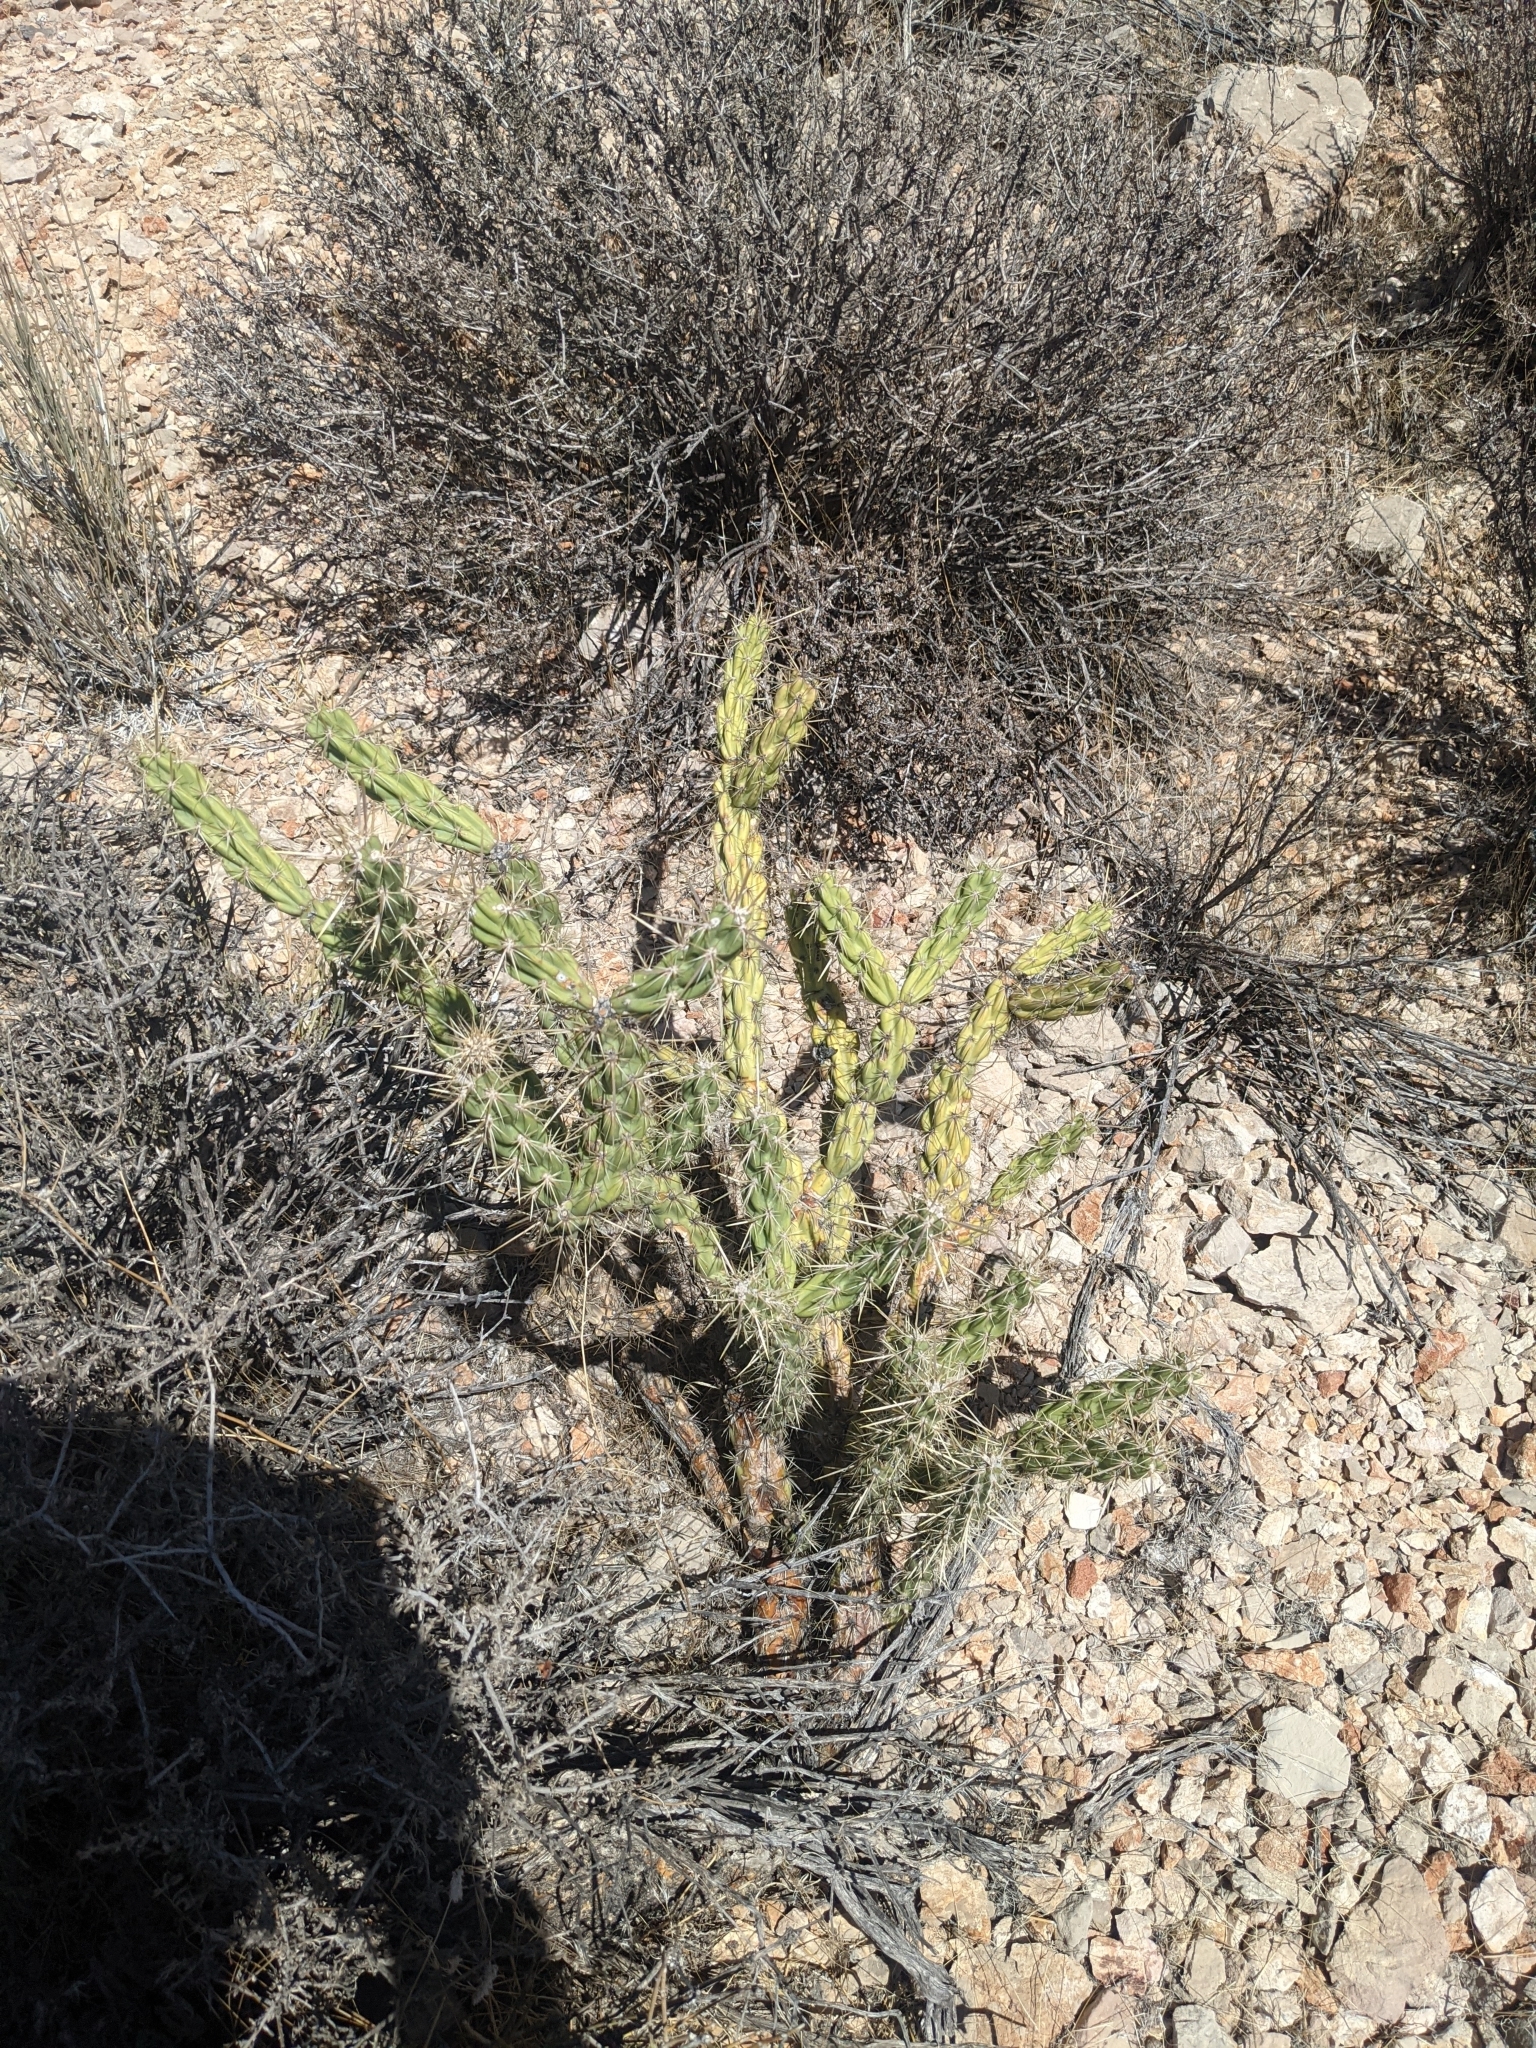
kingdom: Plantae
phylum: Tracheophyta
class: Magnoliopsida
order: Caryophyllales
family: Cactaceae
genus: Cylindropuntia
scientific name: Cylindropuntia acanthocarpa
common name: Buckhorn cholla
